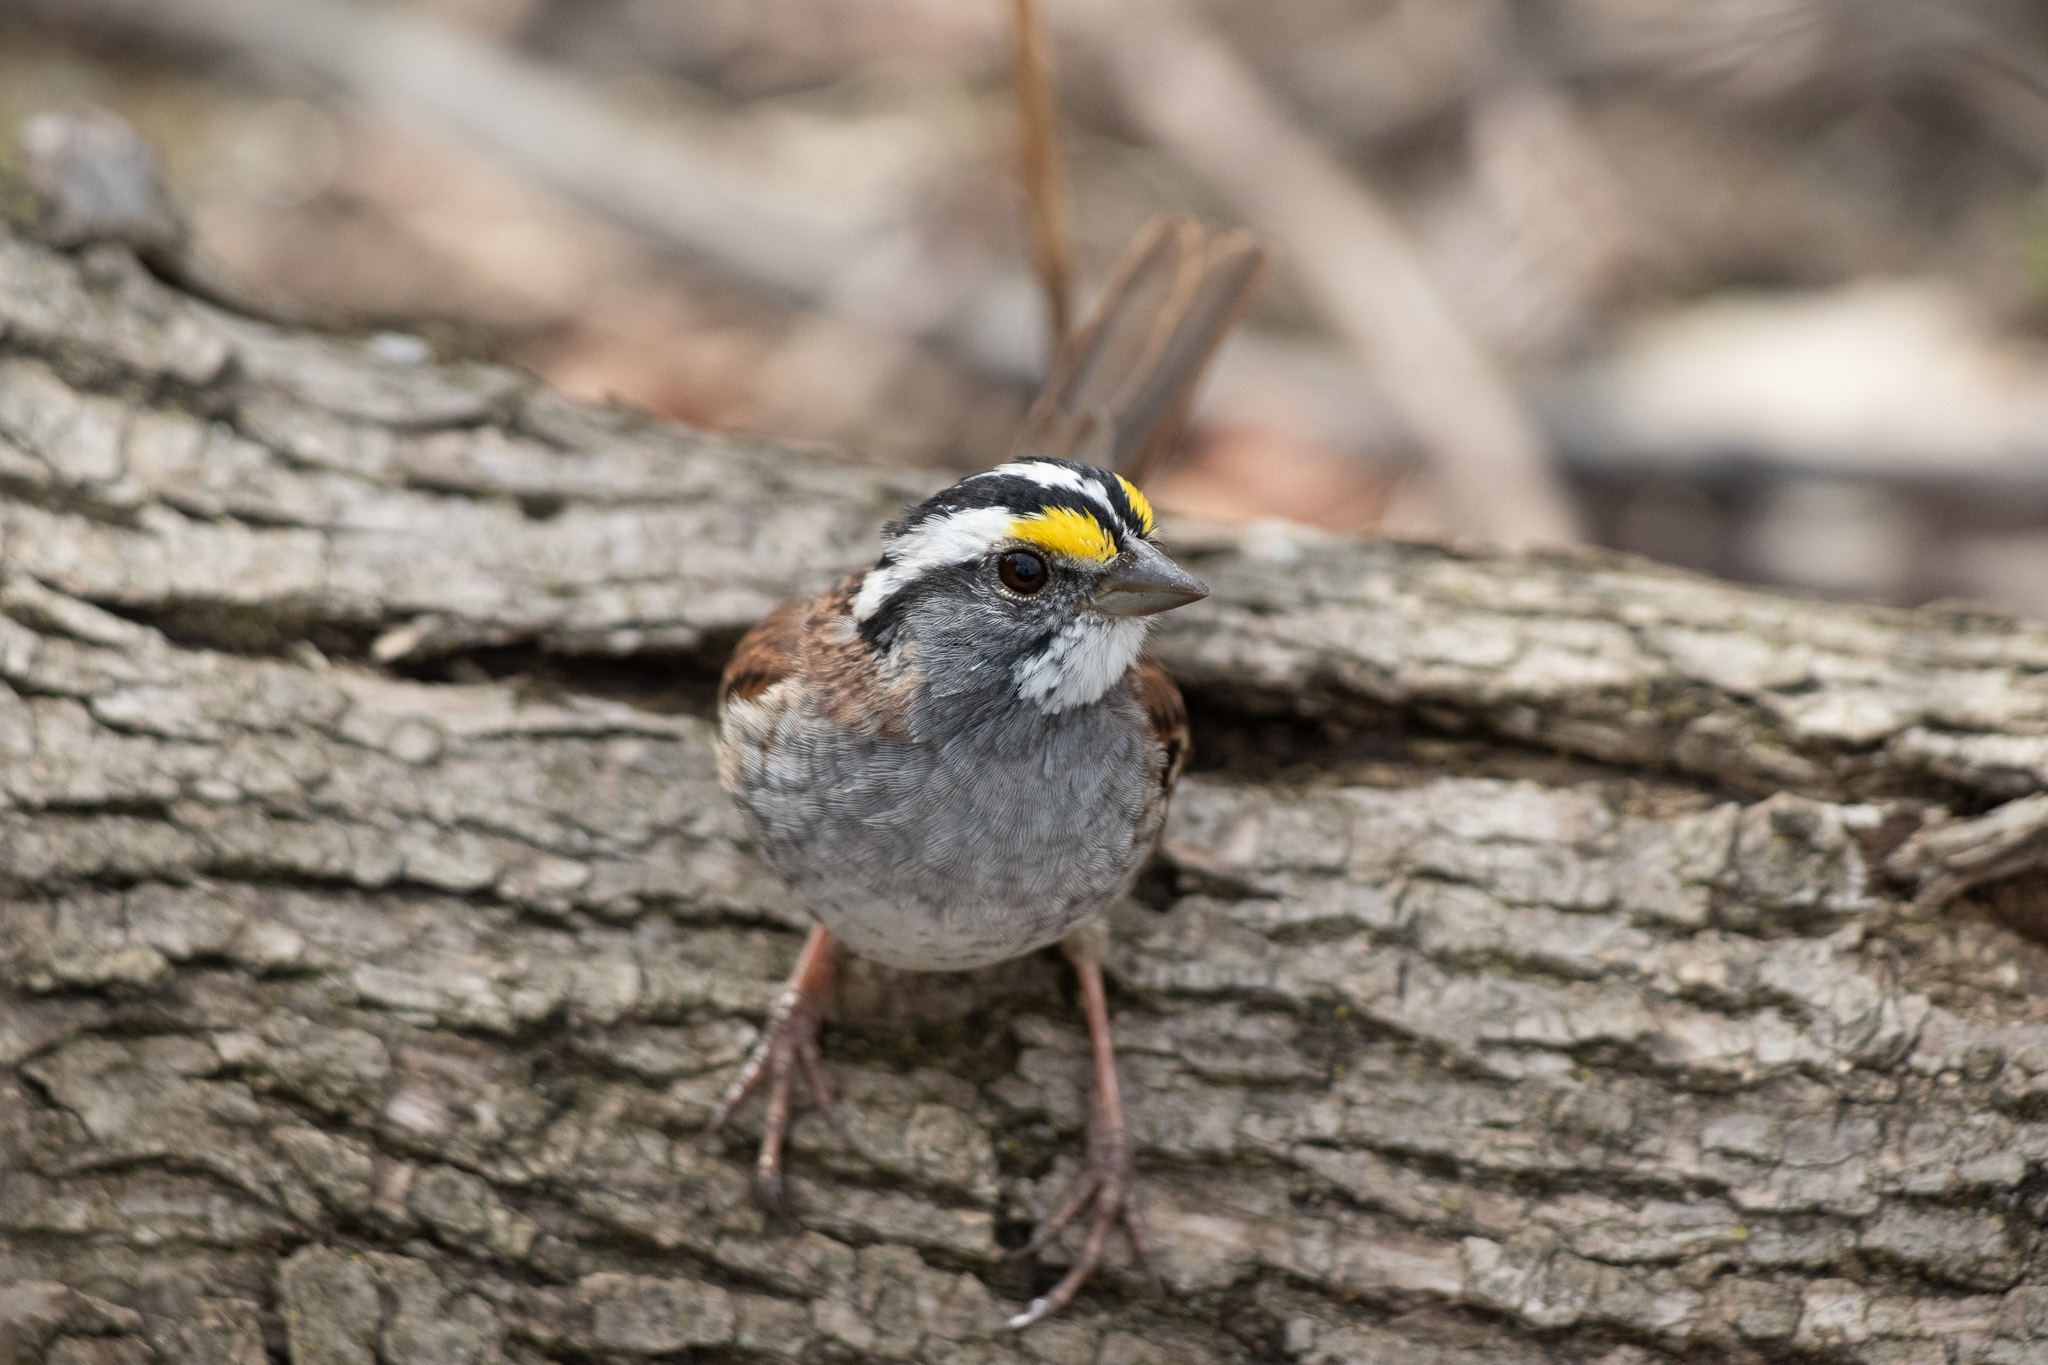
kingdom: Animalia
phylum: Chordata
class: Aves
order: Passeriformes
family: Passerellidae
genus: Zonotrichia
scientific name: Zonotrichia albicollis
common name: White-throated sparrow
